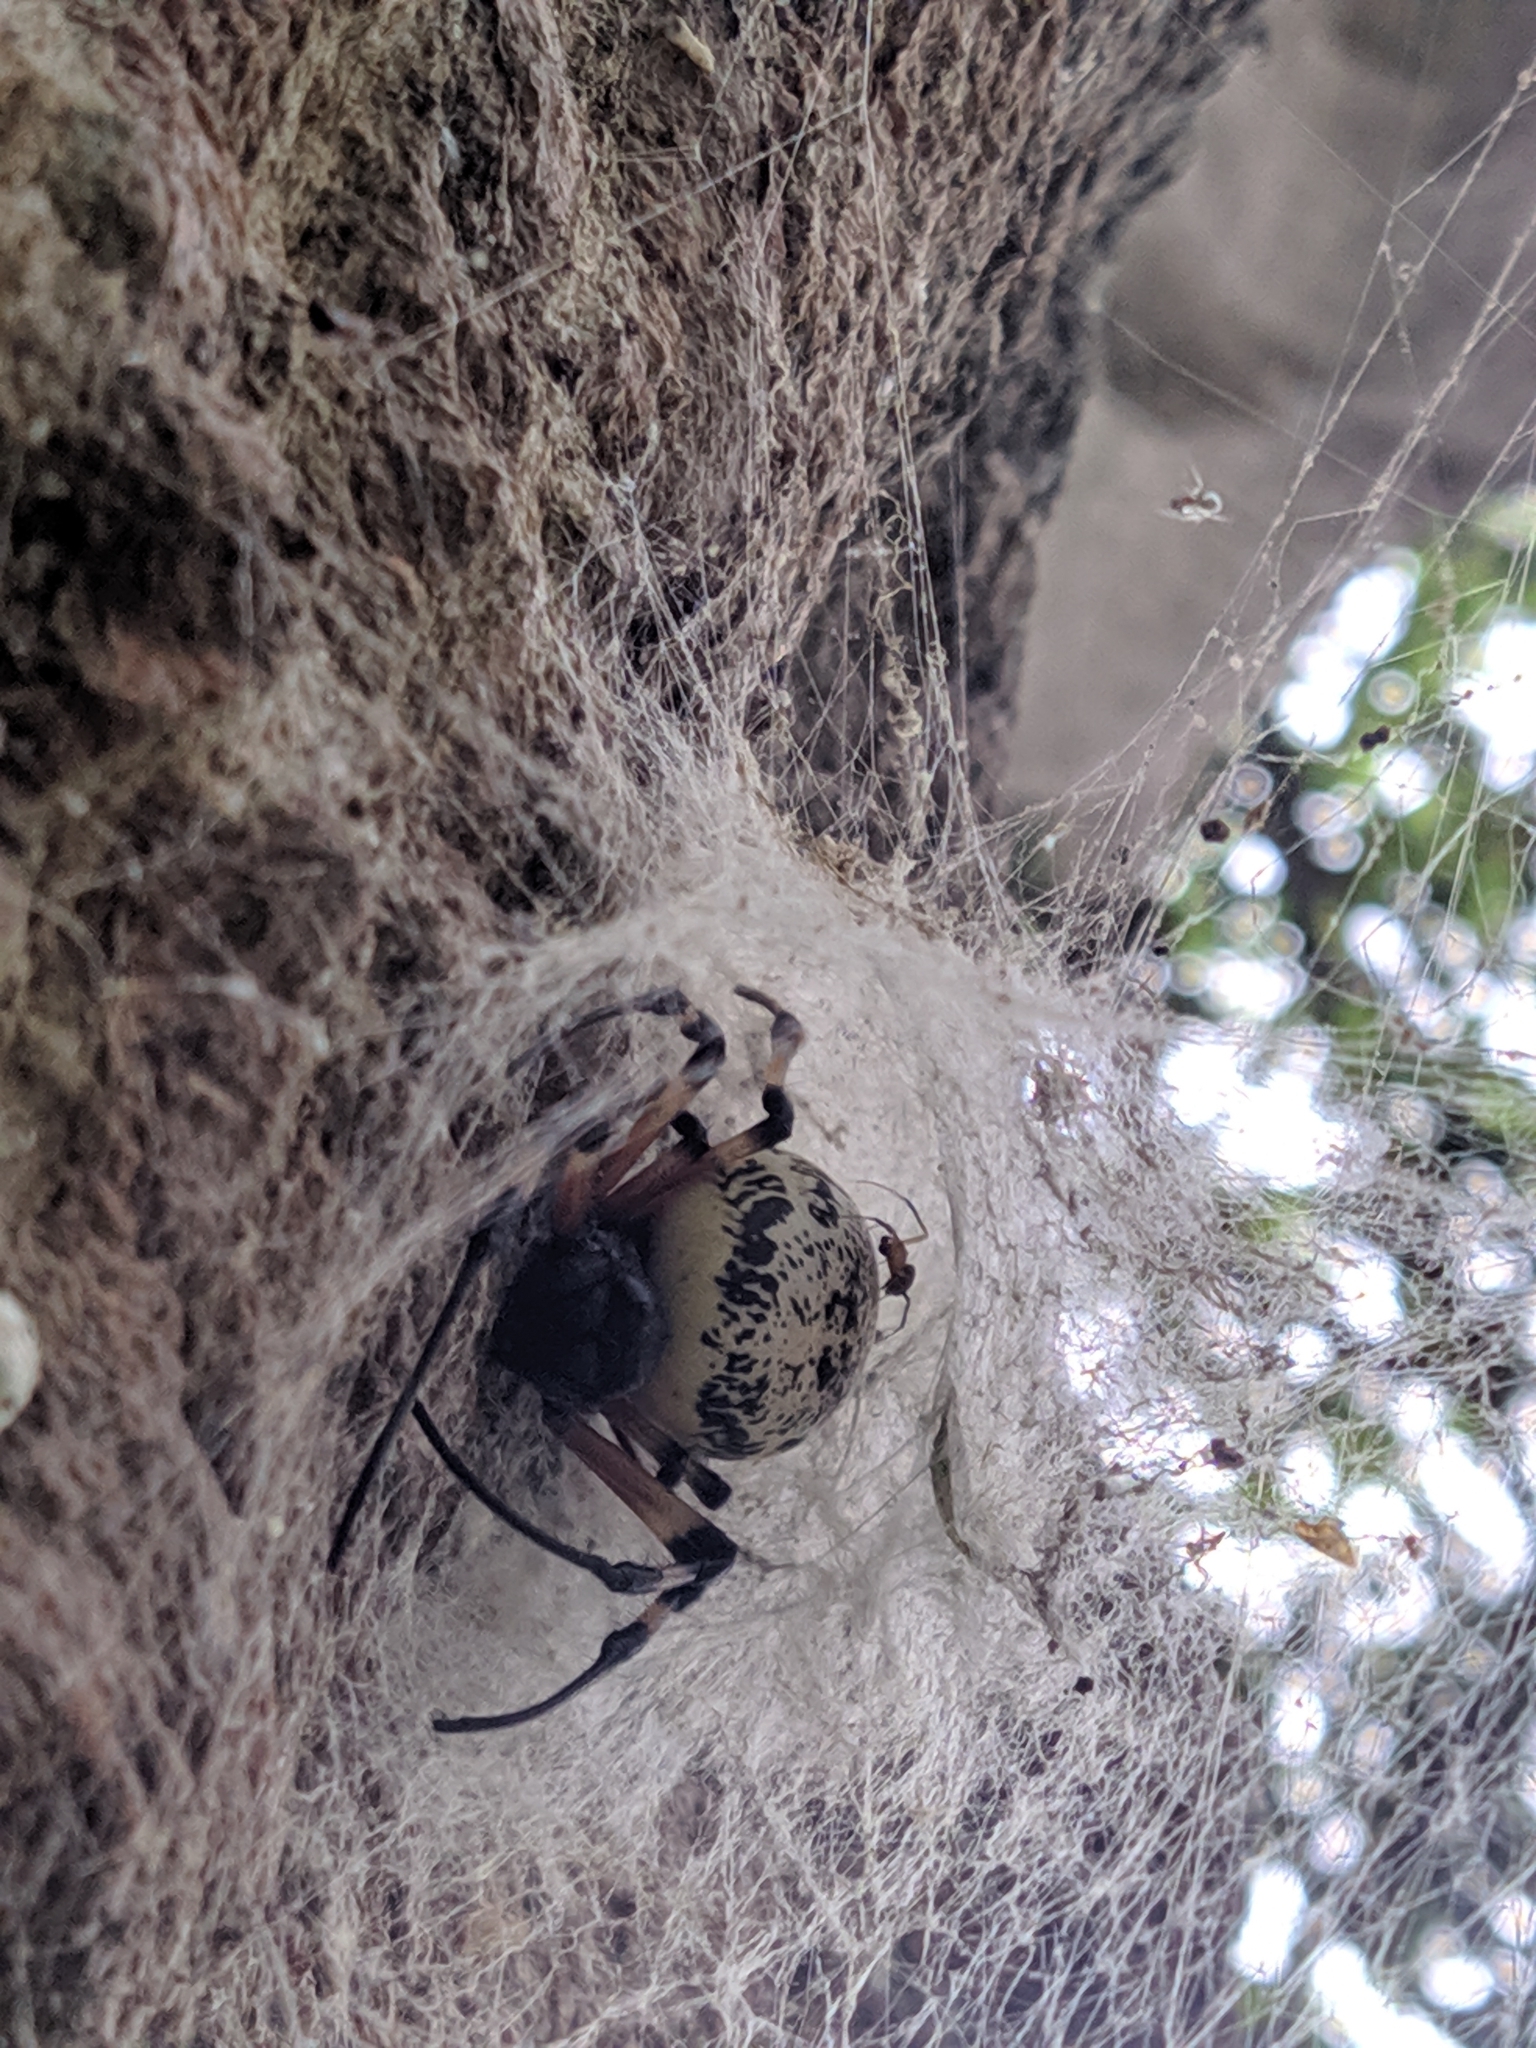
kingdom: Animalia
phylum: Arthropoda
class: Arachnida
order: Araneae
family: Araneidae
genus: Nephilingis
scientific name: Nephilingis cruentata
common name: African hermit spider
